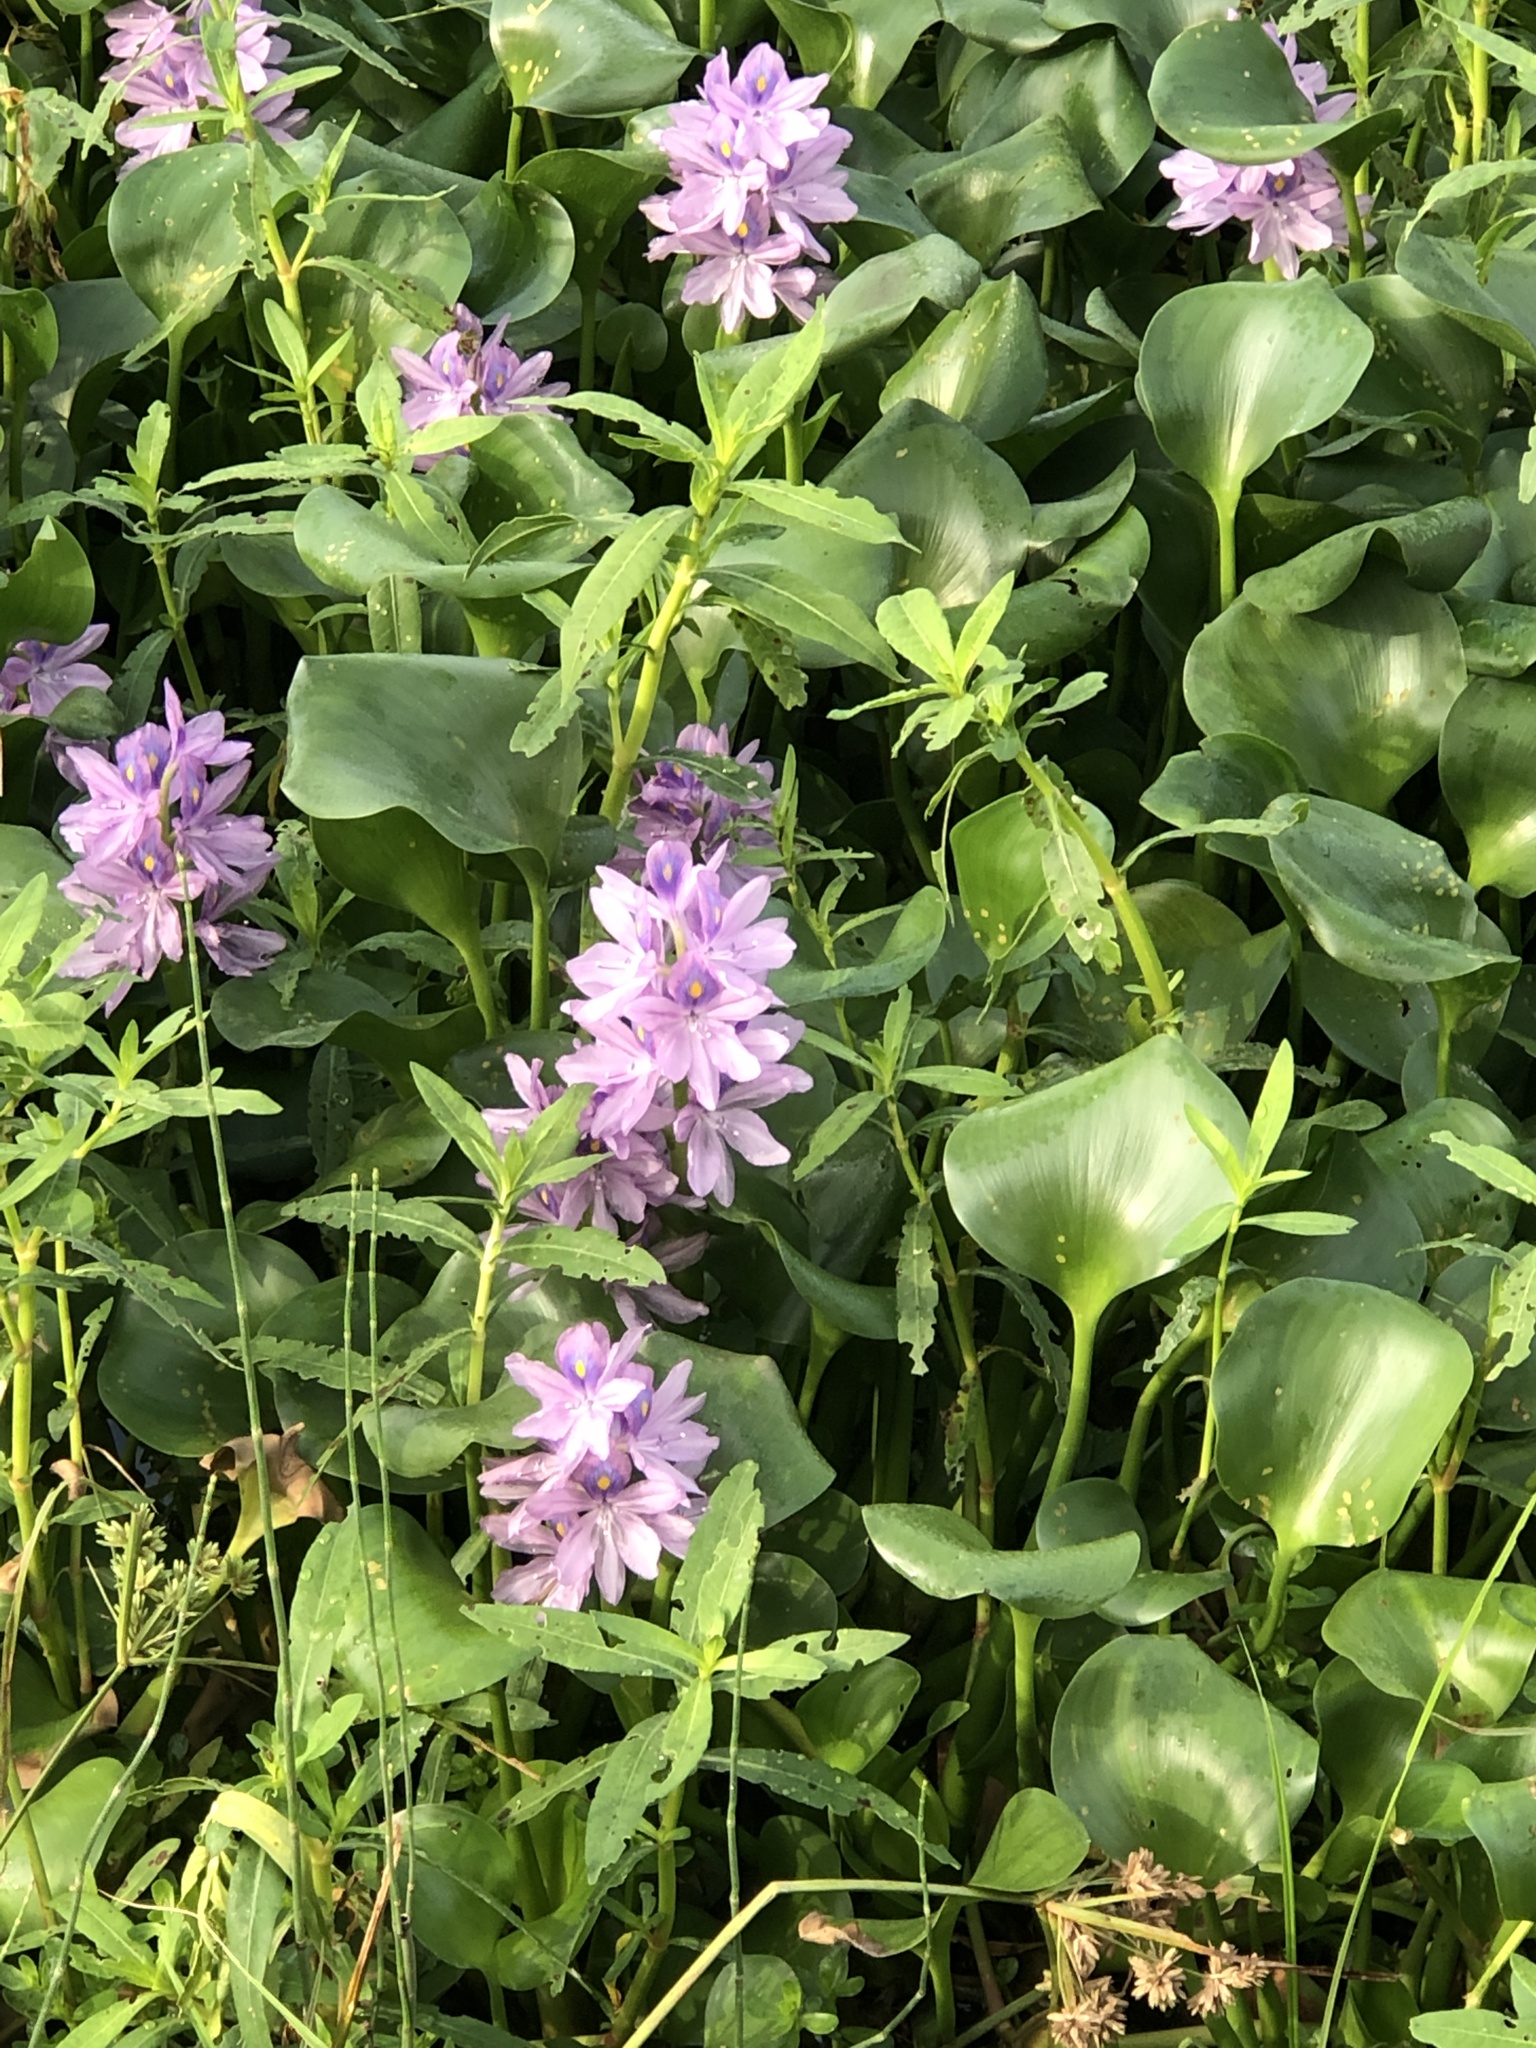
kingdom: Plantae
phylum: Tracheophyta
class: Liliopsida
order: Commelinales
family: Pontederiaceae
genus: Pontederia
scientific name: Pontederia crassipes
